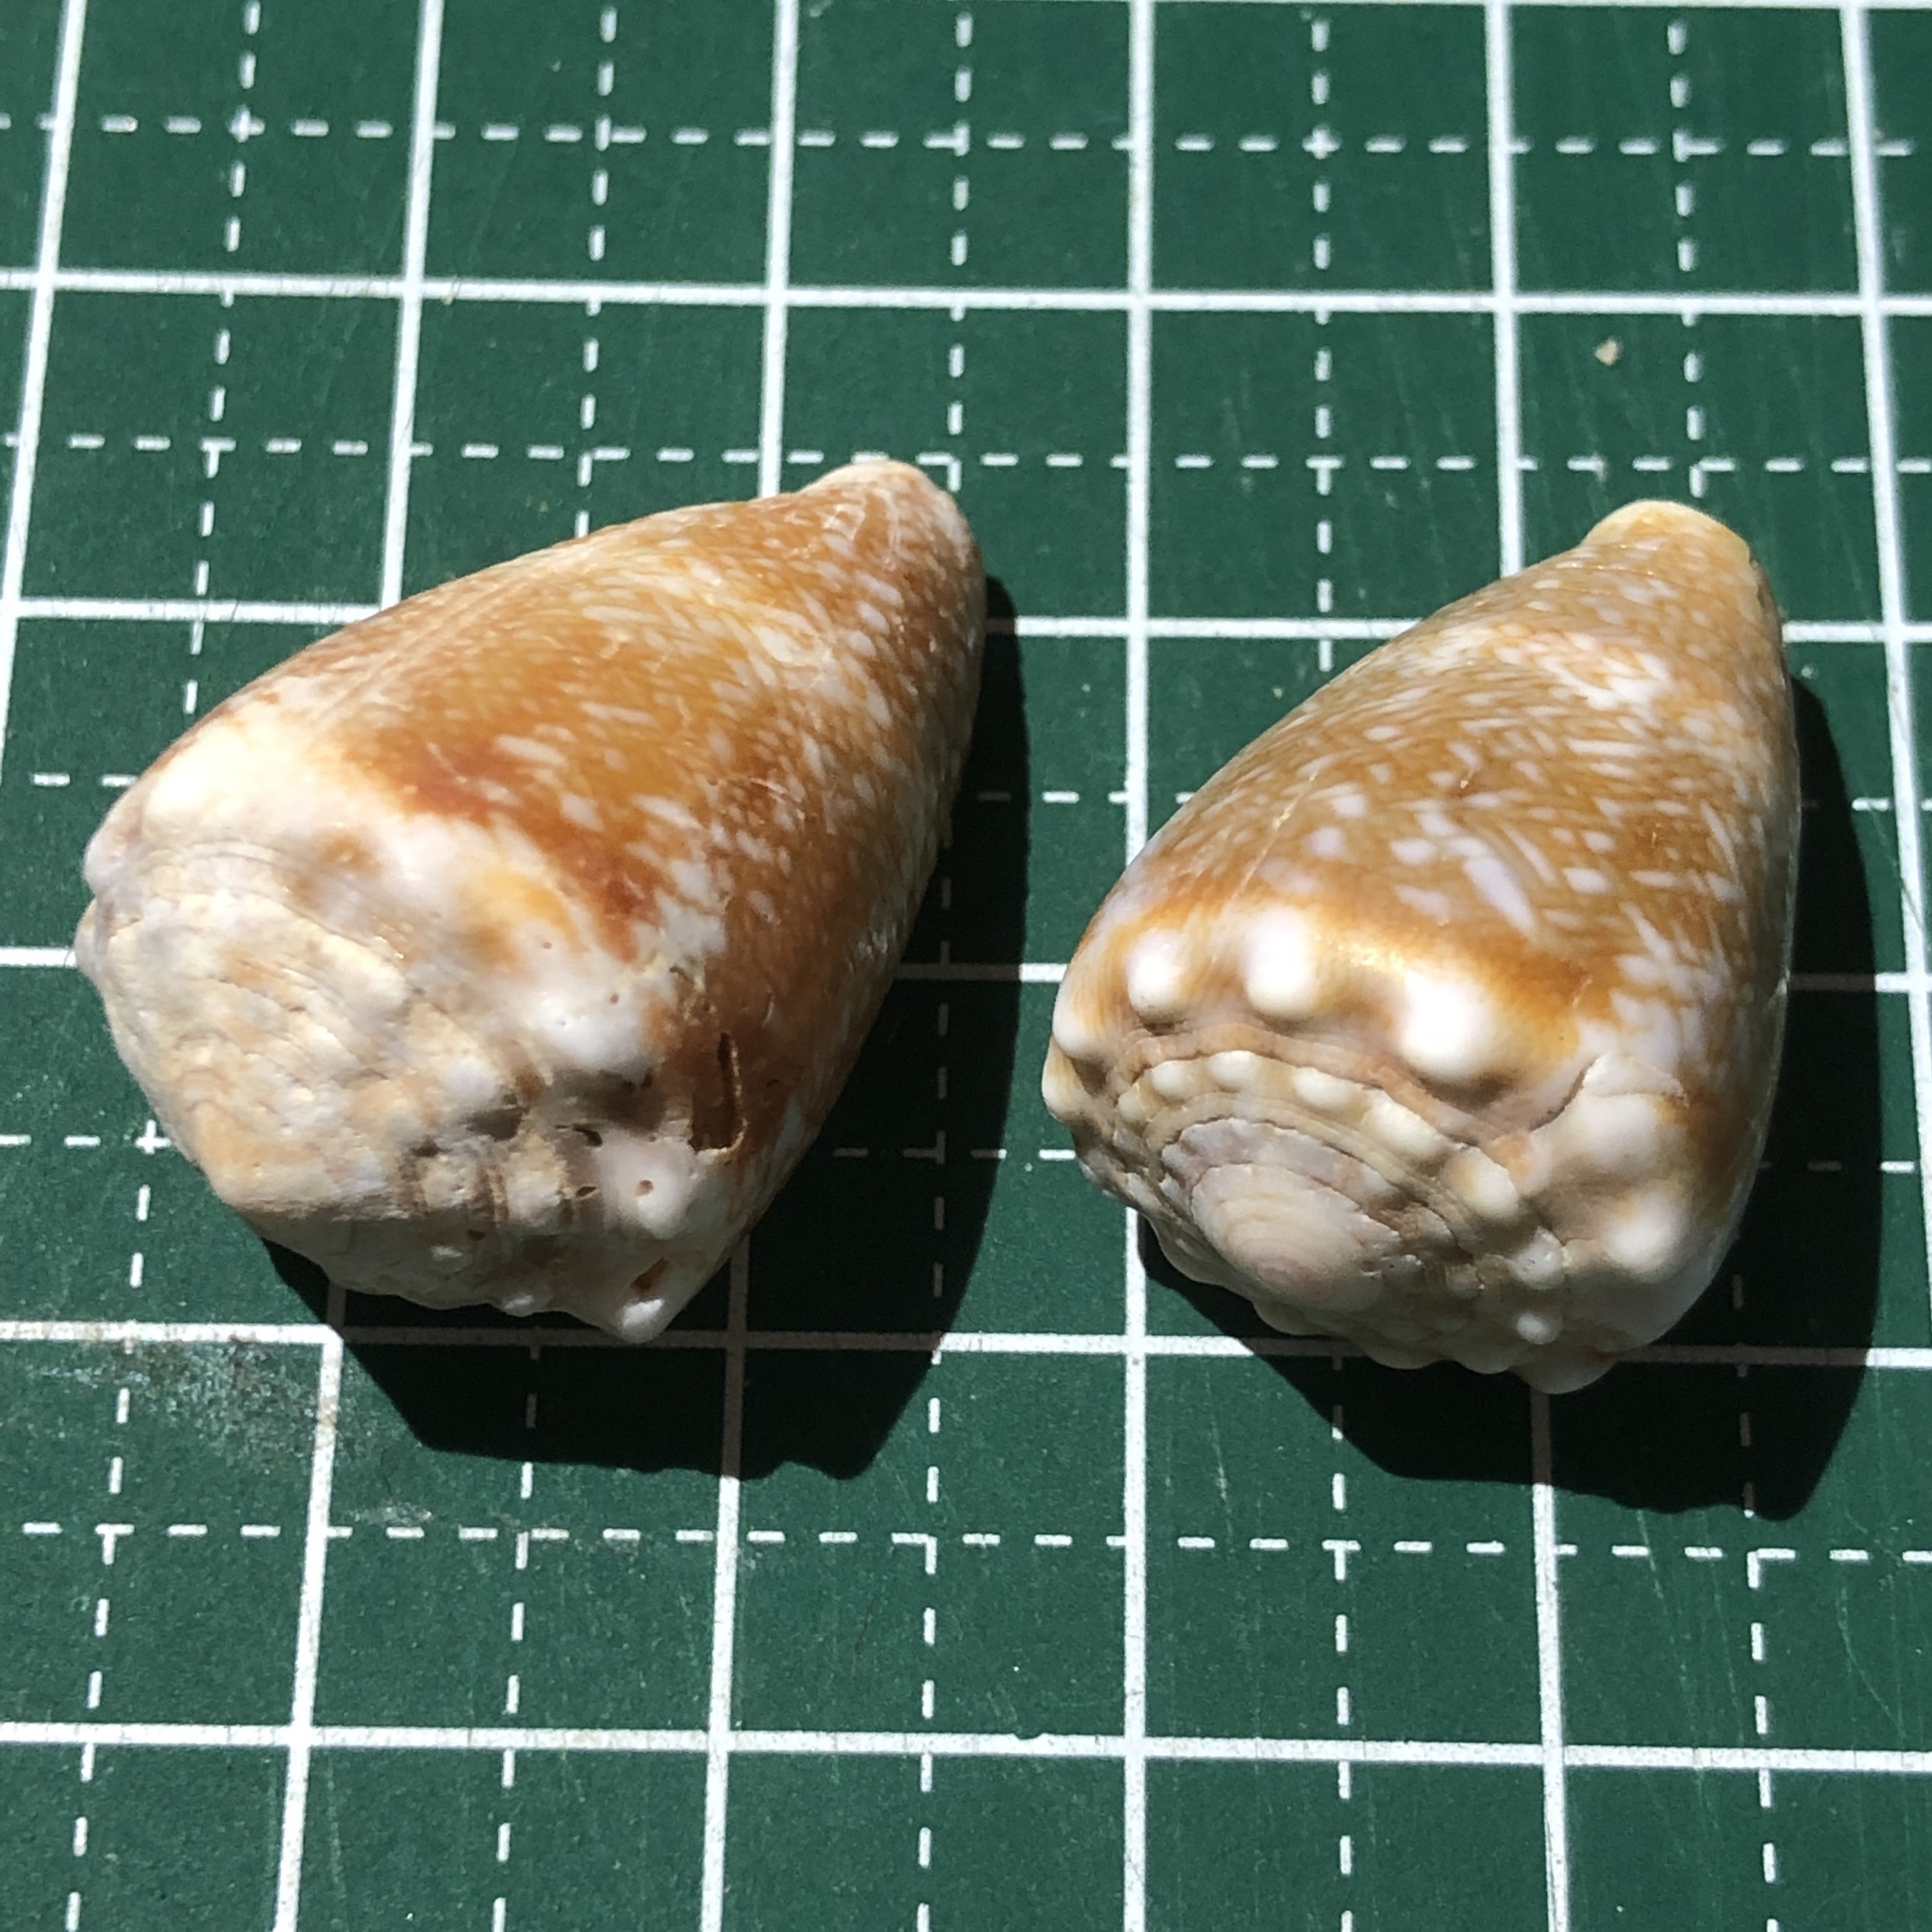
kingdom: Animalia
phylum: Mollusca
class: Gastropoda
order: Neogastropoda
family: Conidae
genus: Conus
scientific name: Conus fulgetrum
